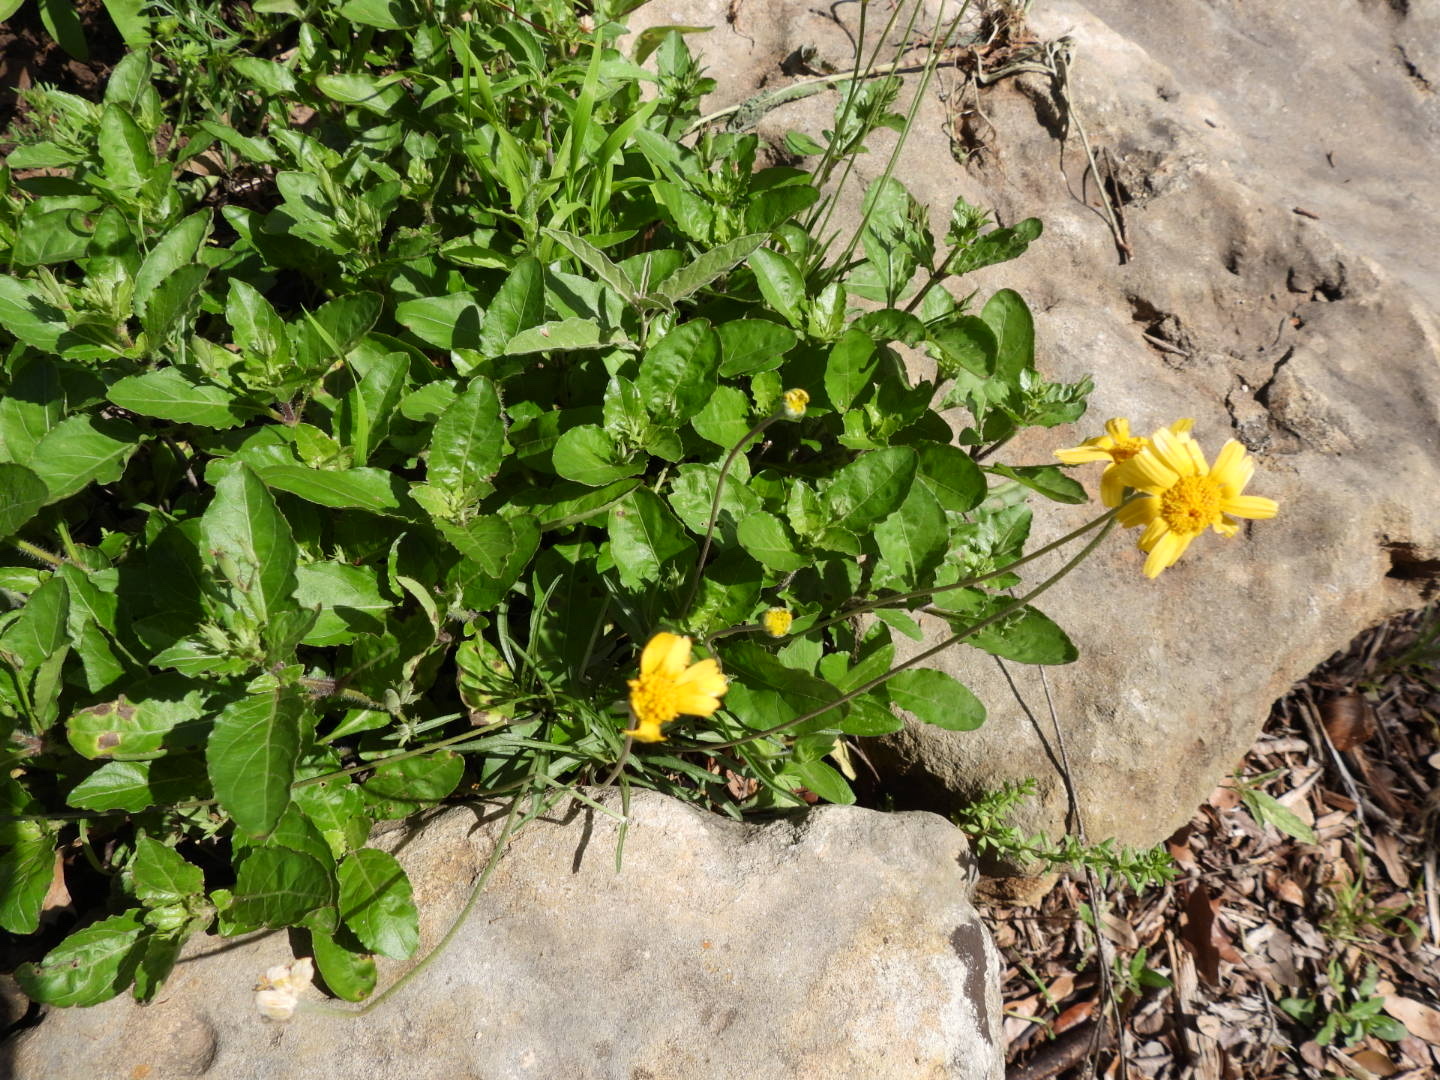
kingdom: Plantae
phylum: Tracheophyta
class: Magnoliopsida
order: Asterales
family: Asteraceae
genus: Tetraneuris
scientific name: Tetraneuris linearifolia
